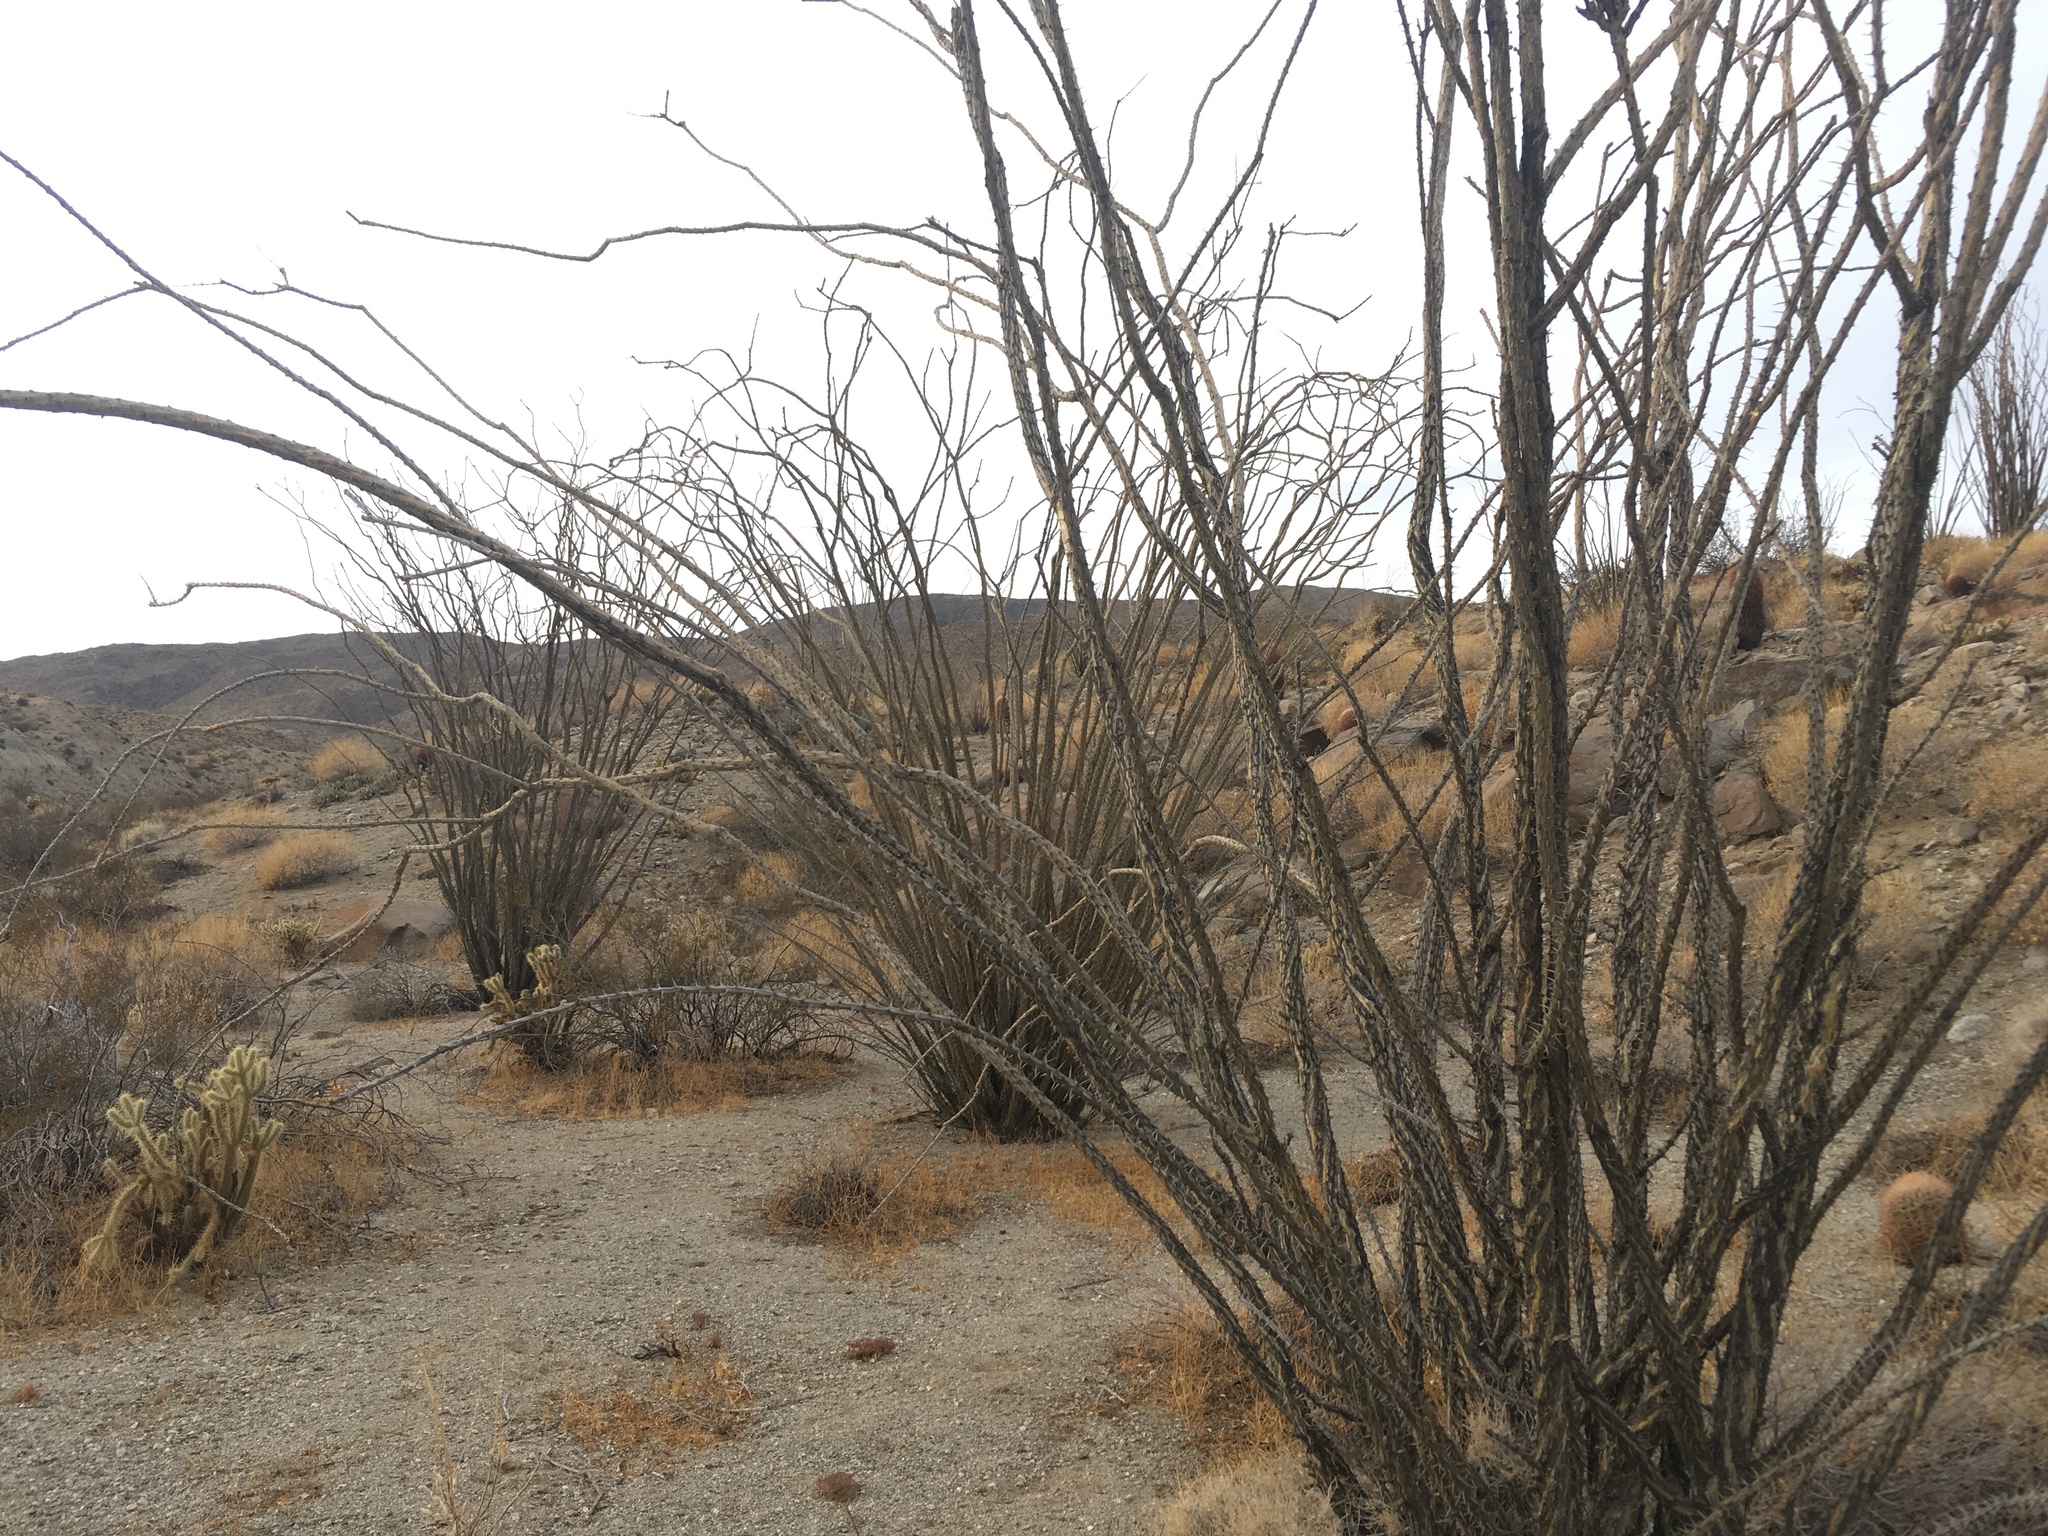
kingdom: Plantae
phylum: Tracheophyta
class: Magnoliopsida
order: Ericales
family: Fouquieriaceae
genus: Fouquieria
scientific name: Fouquieria splendens
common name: Vine-cactus
